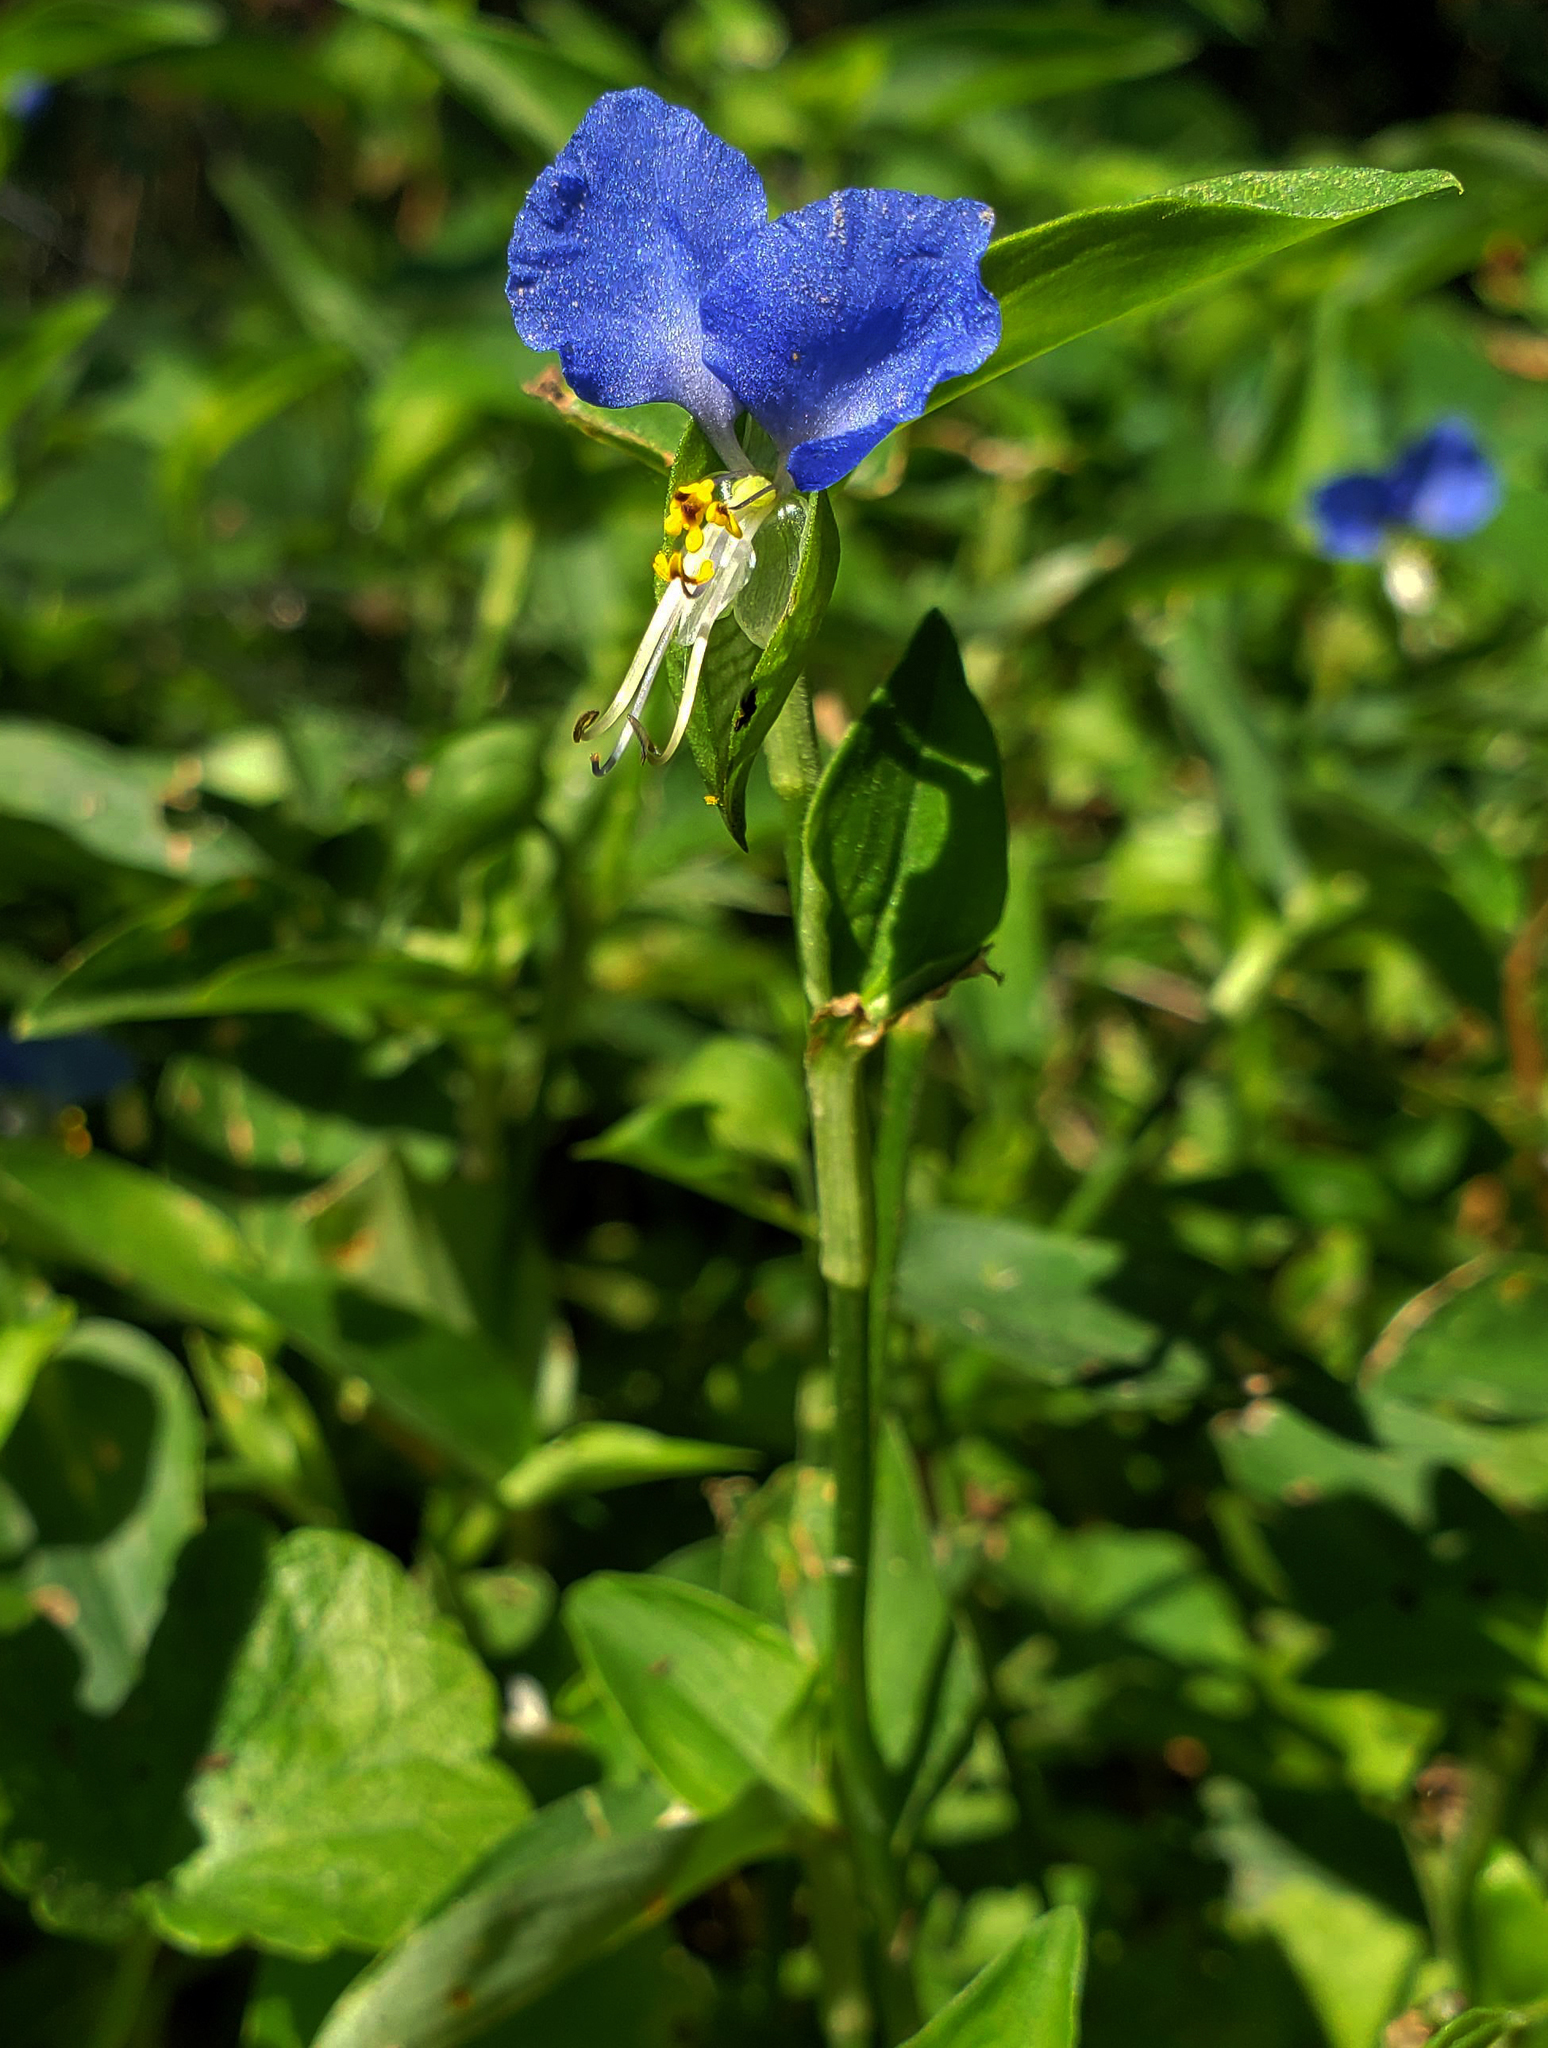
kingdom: Plantae
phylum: Tracheophyta
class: Liliopsida
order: Commelinales
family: Commelinaceae
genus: Commelina
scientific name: Commelina communis
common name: Asiatic dayflower
